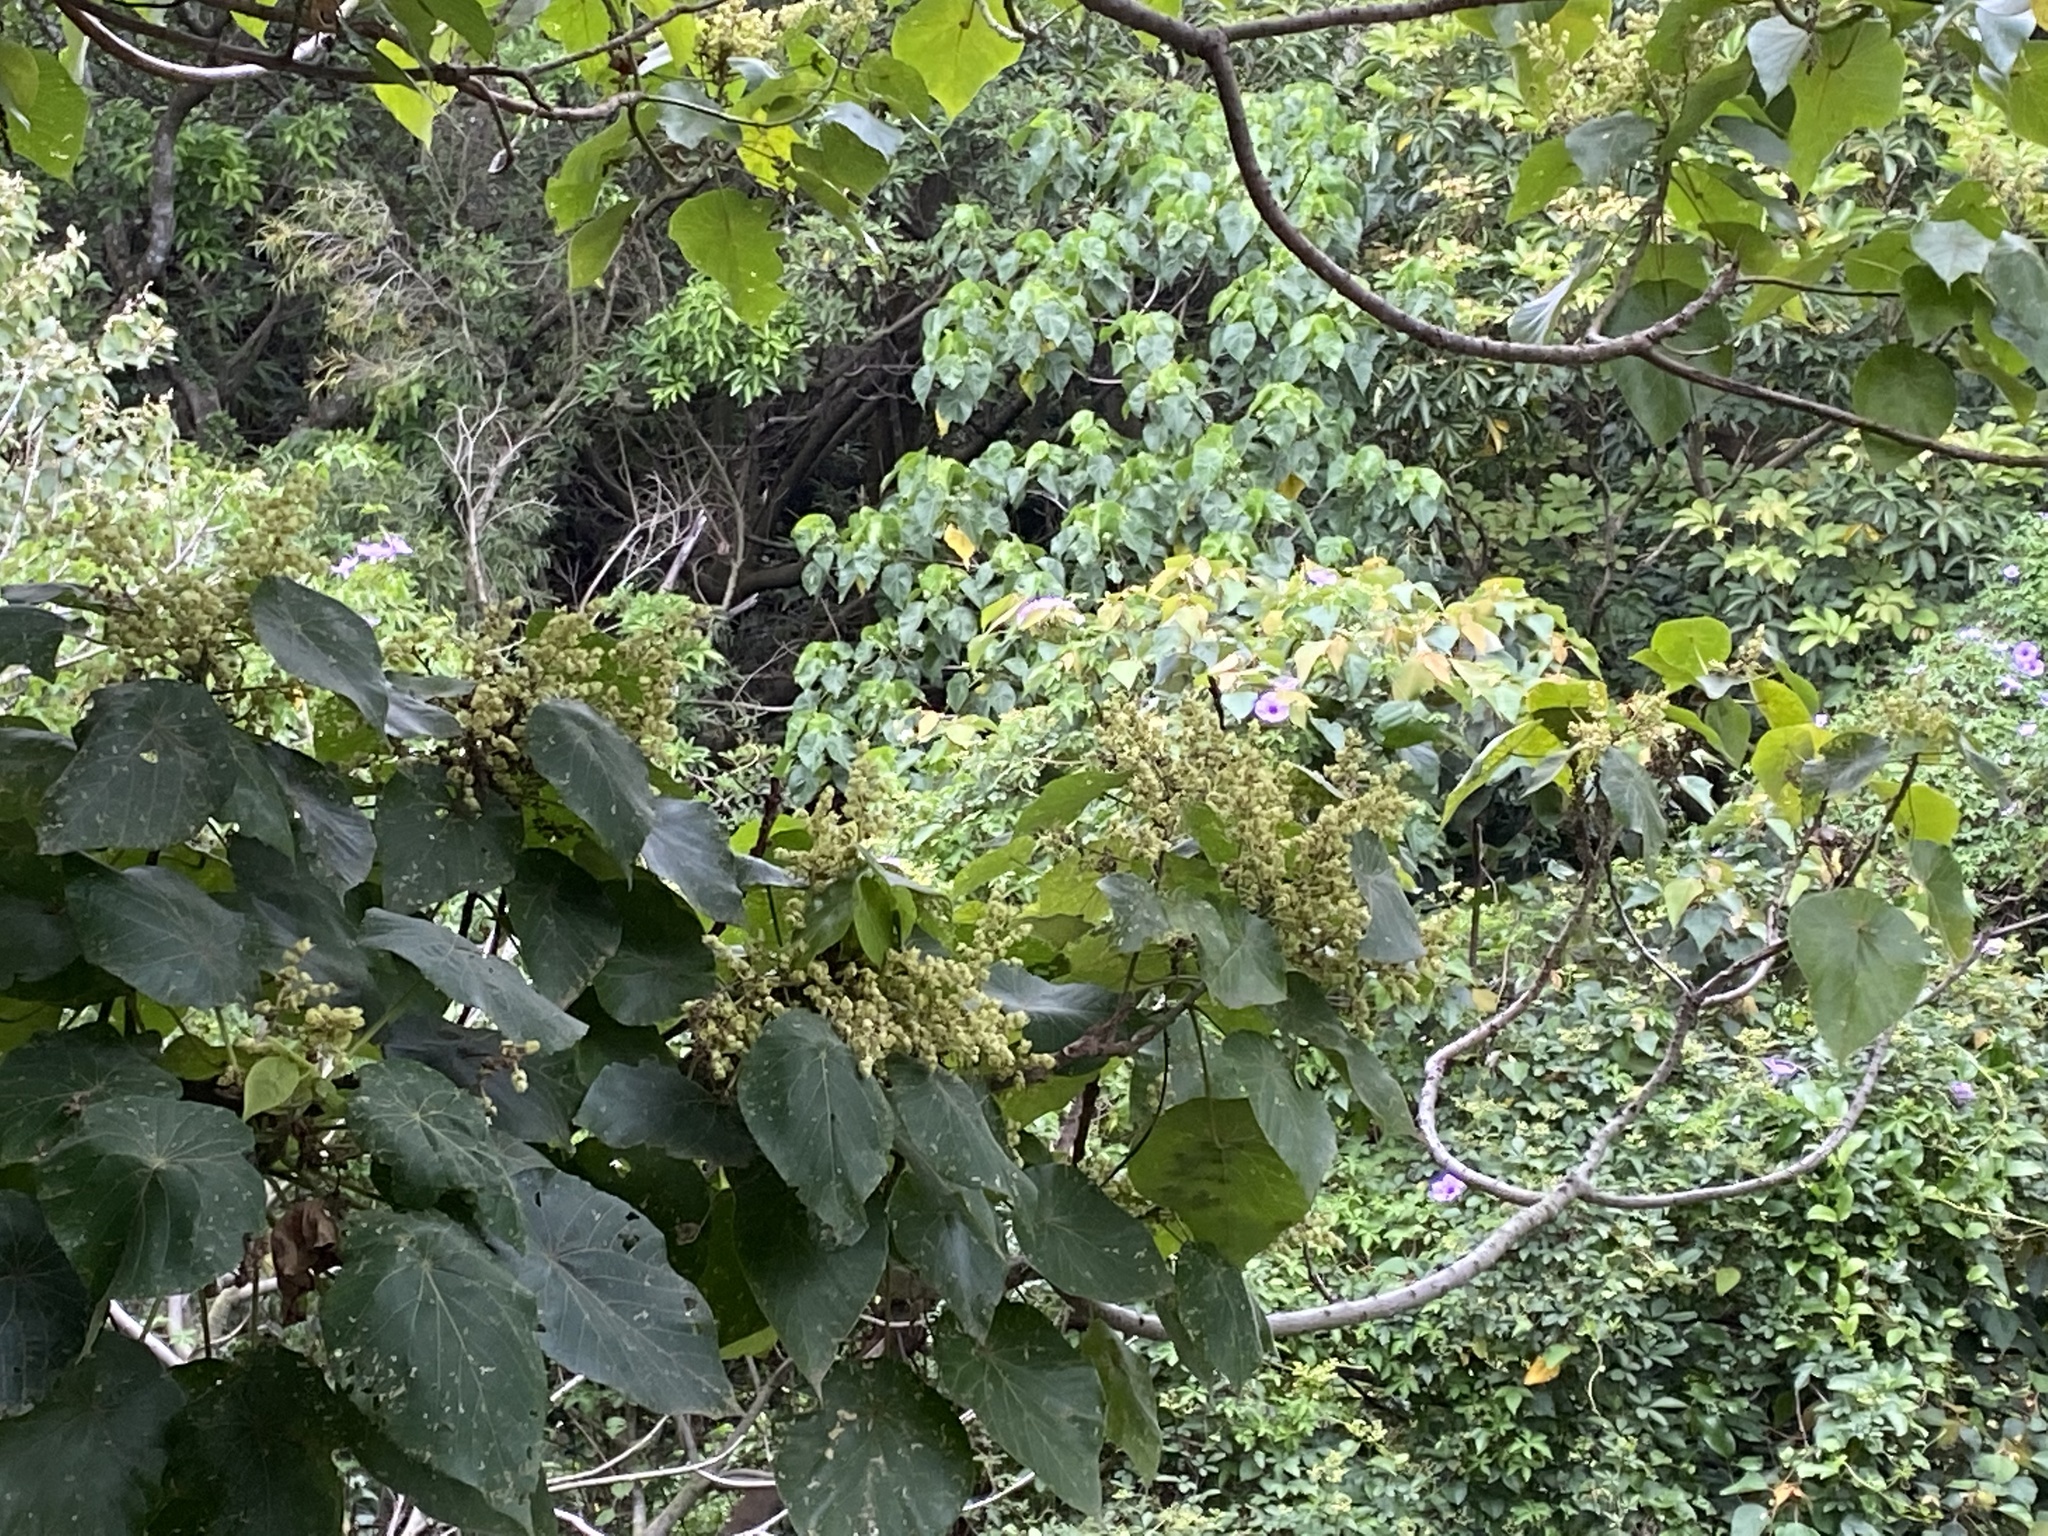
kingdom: Plantae
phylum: Tracheophyta
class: Magnoliopsida
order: Malpighiales
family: Euphorbiaceae
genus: Macaranga
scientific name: Macaranga tanarius
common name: Parasol leaf tree
